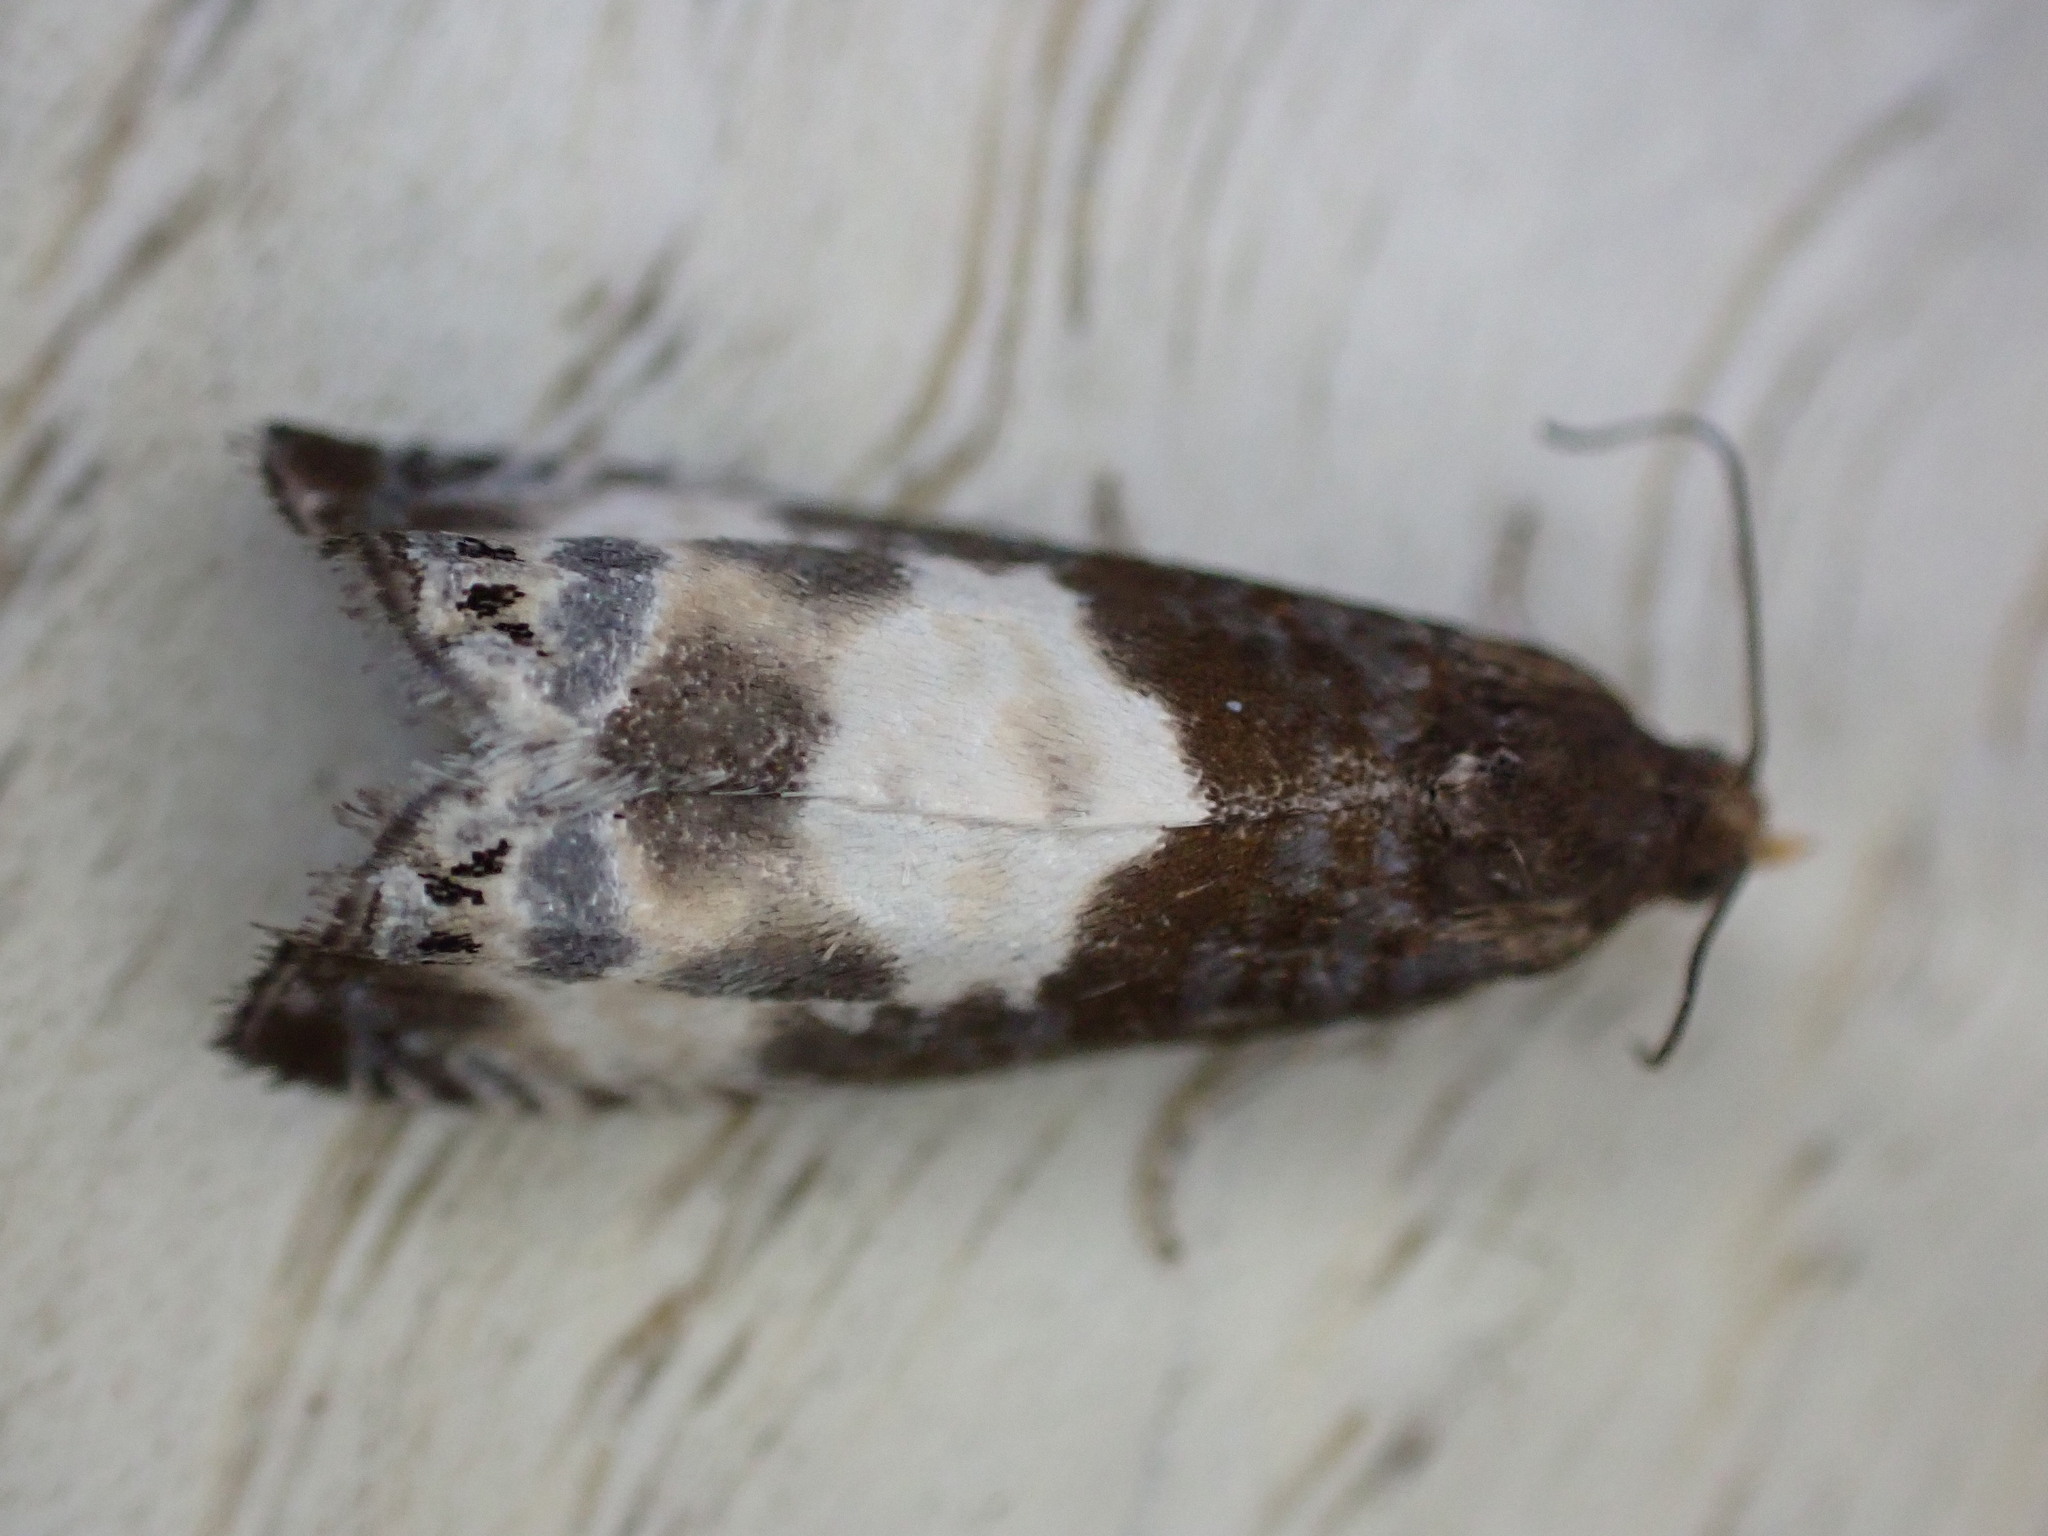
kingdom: Animalia
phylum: Arthropoda
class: Insecta
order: Lepidoptera
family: Tortricidae
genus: Notocelia
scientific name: Notocelia cynosbatella
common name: Yellow-faced bell moth
